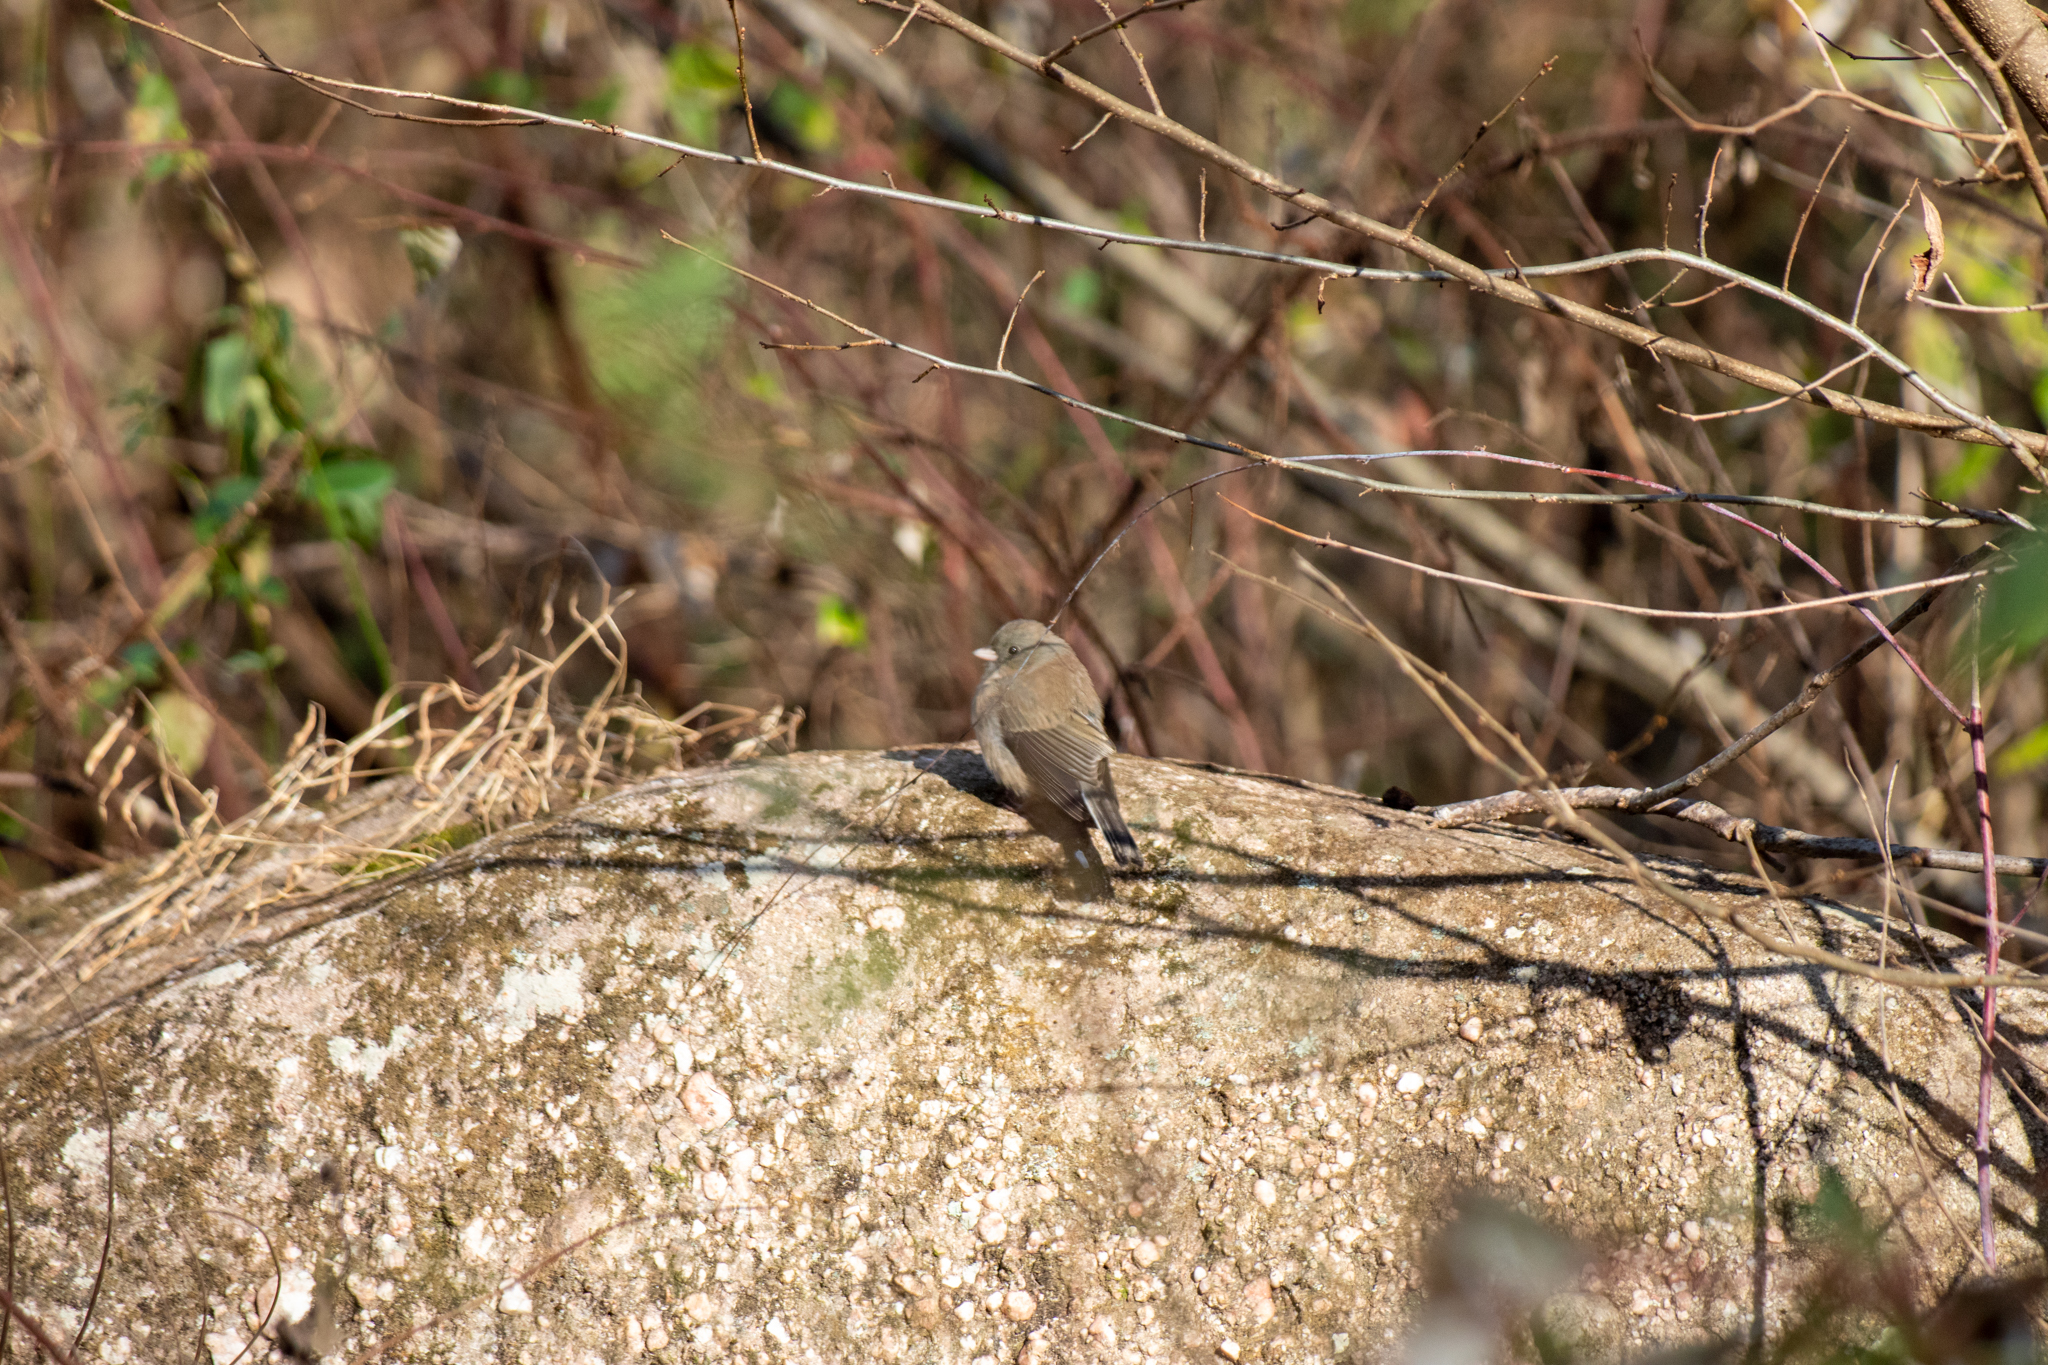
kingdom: Animalia
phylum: Chordata
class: Aves
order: Passeriformes
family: Passerellidae
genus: Junco
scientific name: Junco hyemalis
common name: Dark-eyed junco
